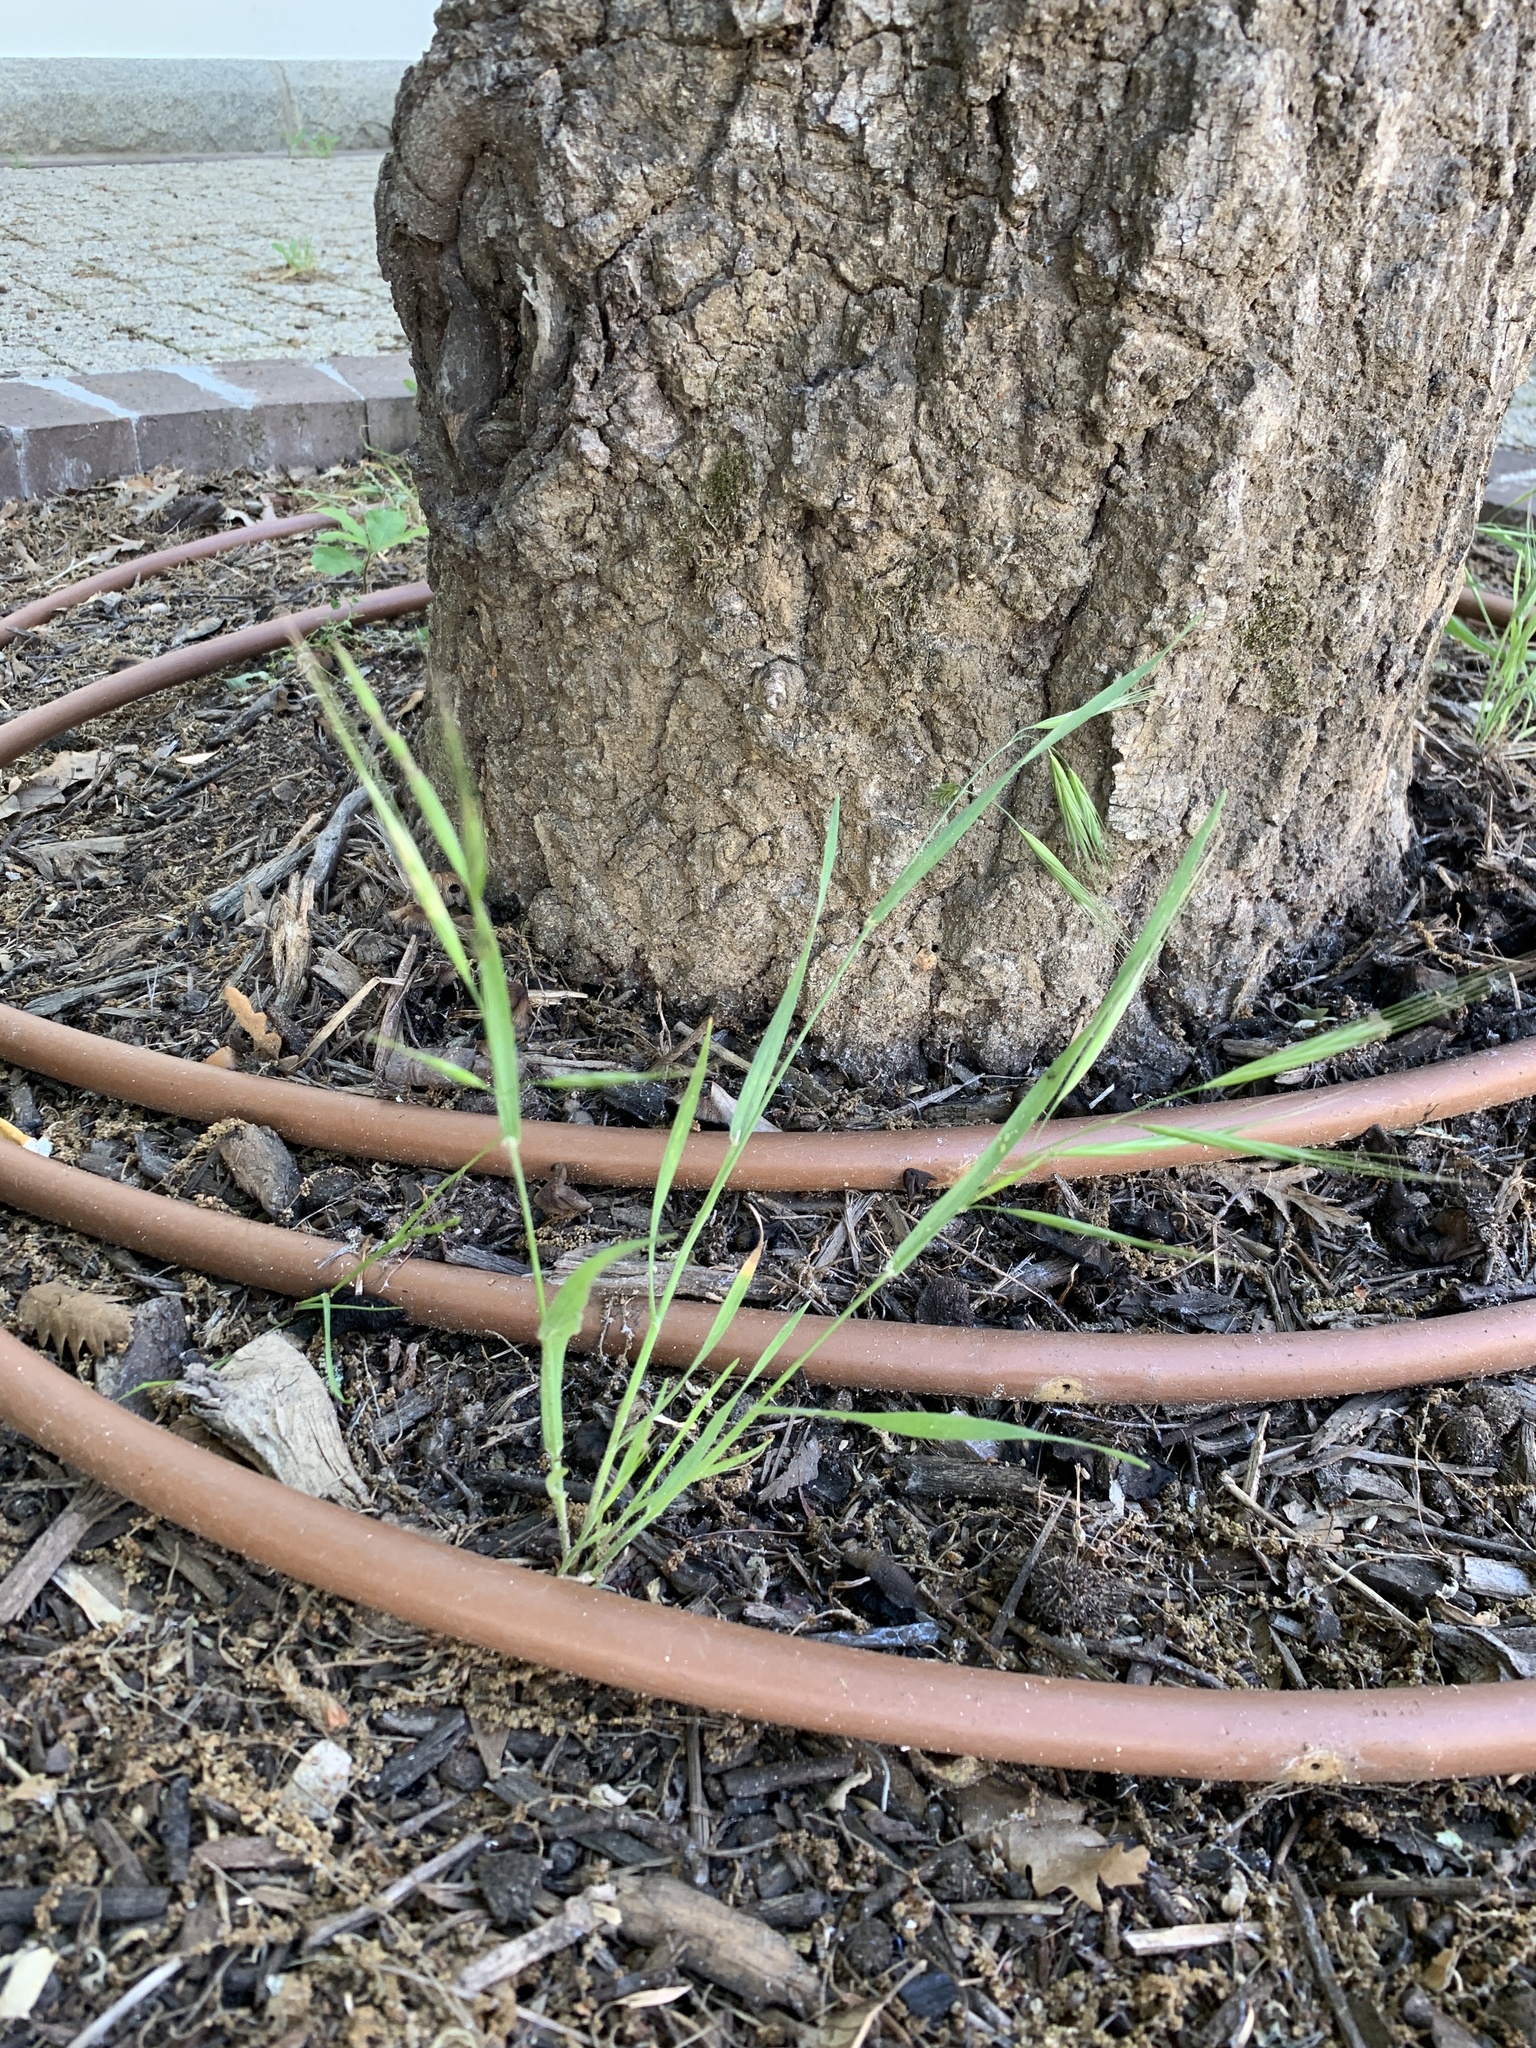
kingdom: Plantae
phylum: Tracheophyta
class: Liliopsida
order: Poales
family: Poaceae
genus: Bromus
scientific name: Bromus diandrus
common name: Ripgut brome
